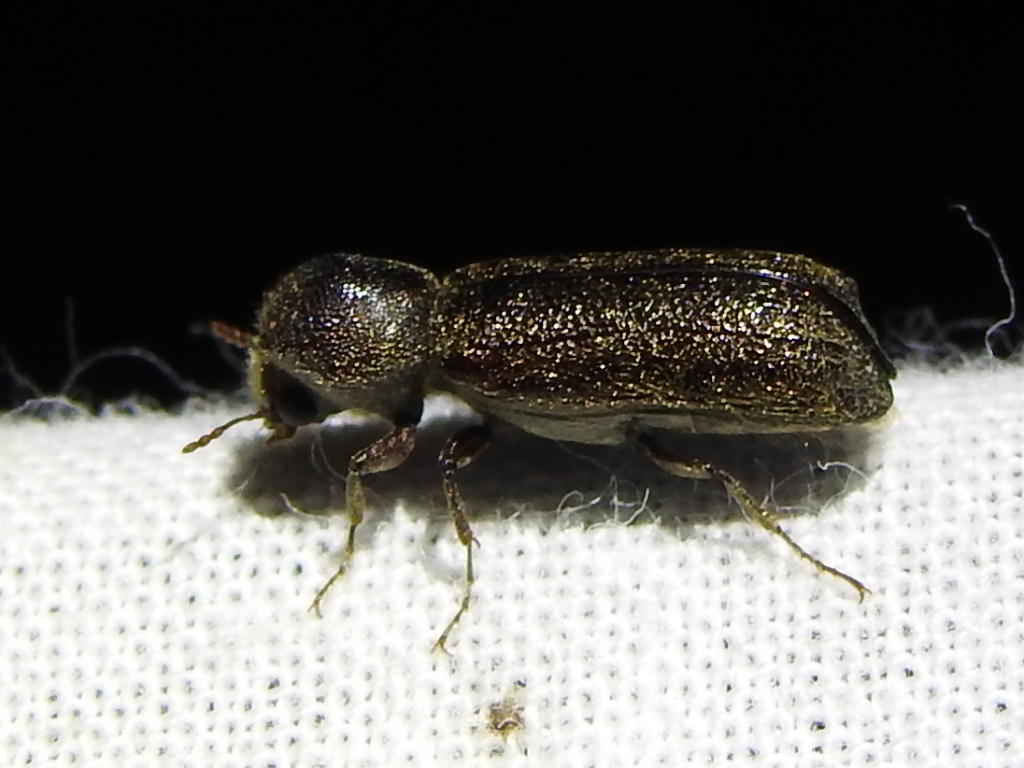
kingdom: Animalia
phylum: Arthropoda
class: Insecta
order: Coleoptera
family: Bostrichidae
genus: Amphicerus
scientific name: Amphicerus bicaudatus
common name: Apple twig borer
